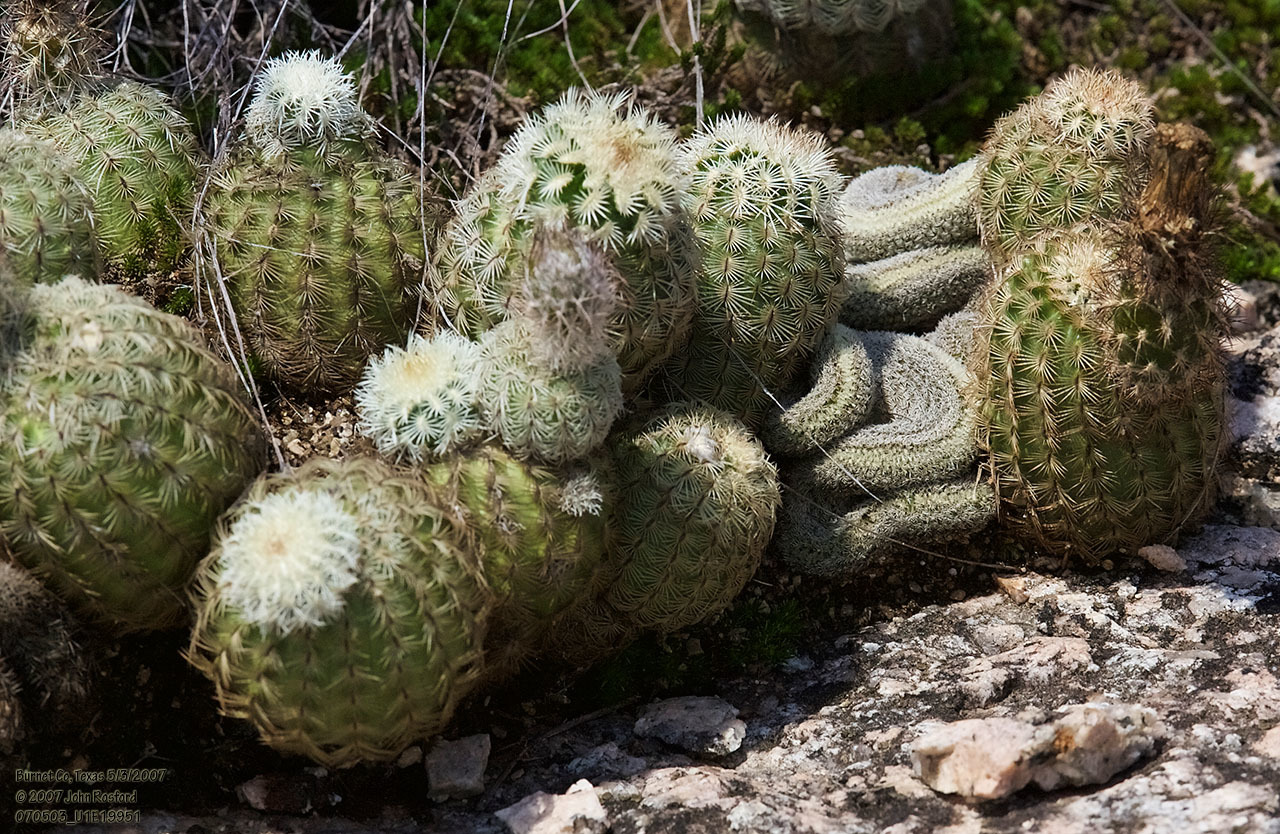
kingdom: Plantae
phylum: Tracheophyta
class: Magnoliopsida
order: Caryophyllales
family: Cactaceae
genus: Echinocereus
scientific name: Echinocereus reichenbachii
